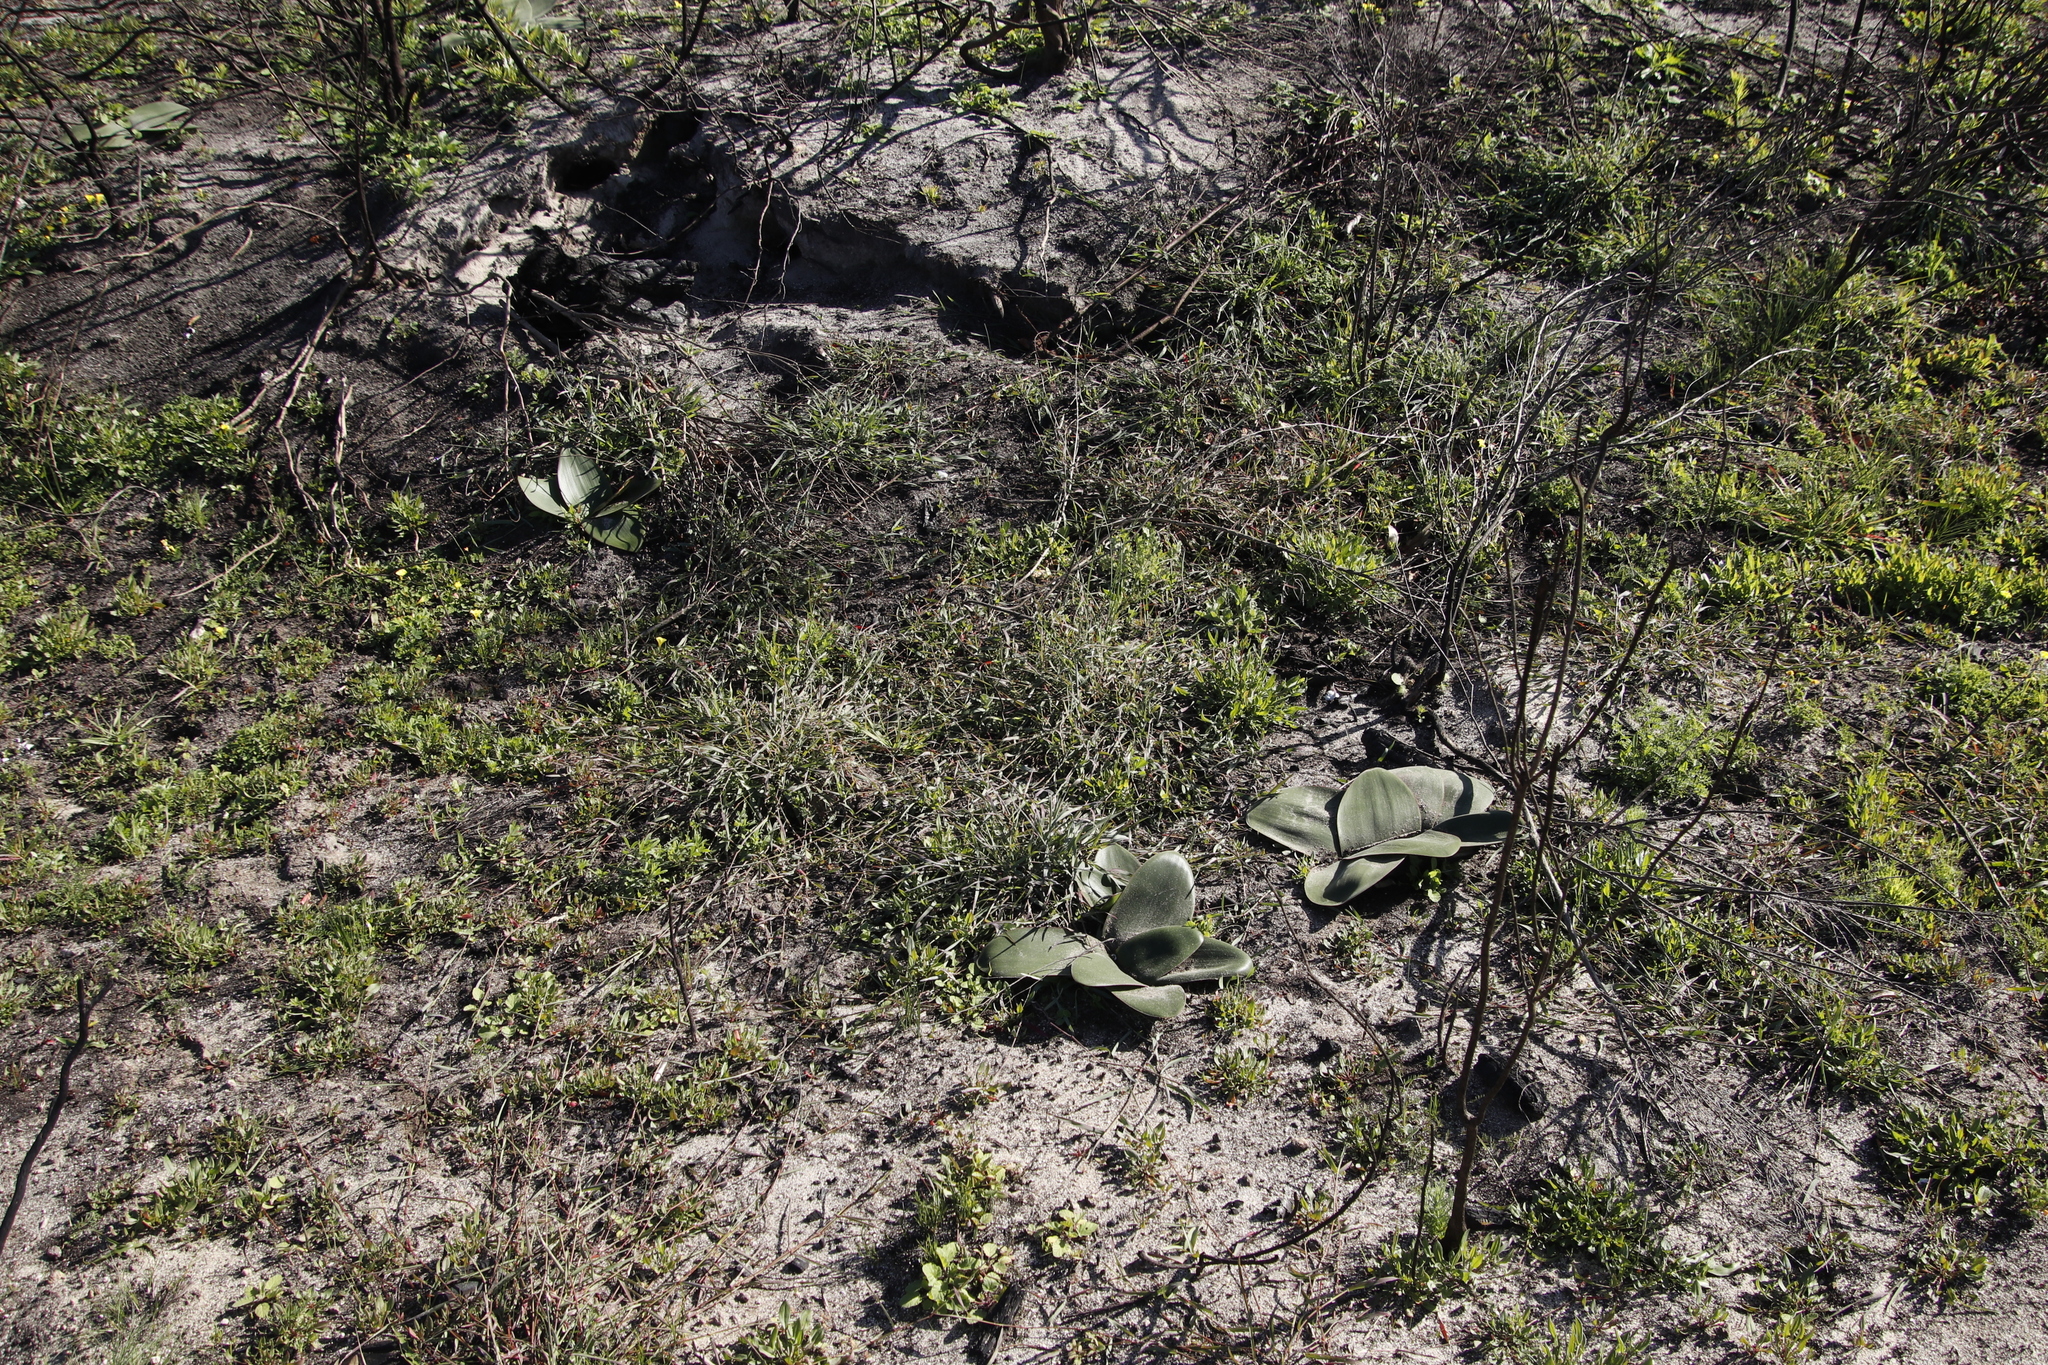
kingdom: Plantae
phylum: Tracheophyta
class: Liliopsida
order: Asparagales
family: Amaryllidaceae
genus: Brunsvigia
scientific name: Brunsvigia orientalis
